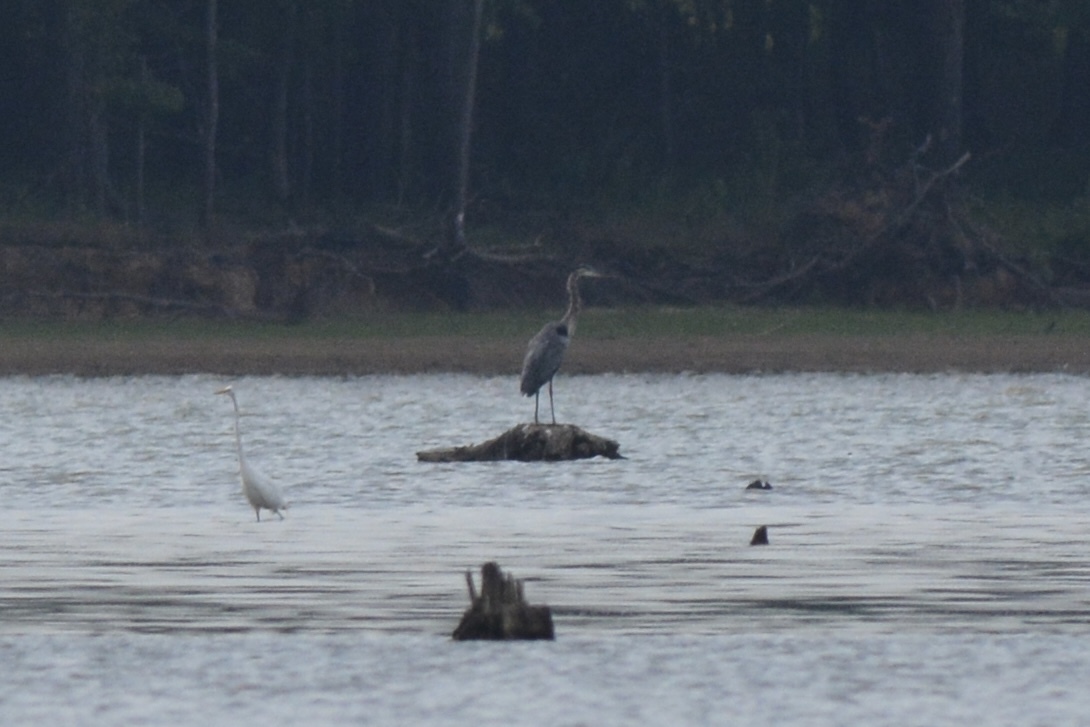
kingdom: Animalia
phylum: Chordata
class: Aves
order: Pelecaniformes
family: Ardeidae
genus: Ardea
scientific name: Ardea herodias
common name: Great blue heron
